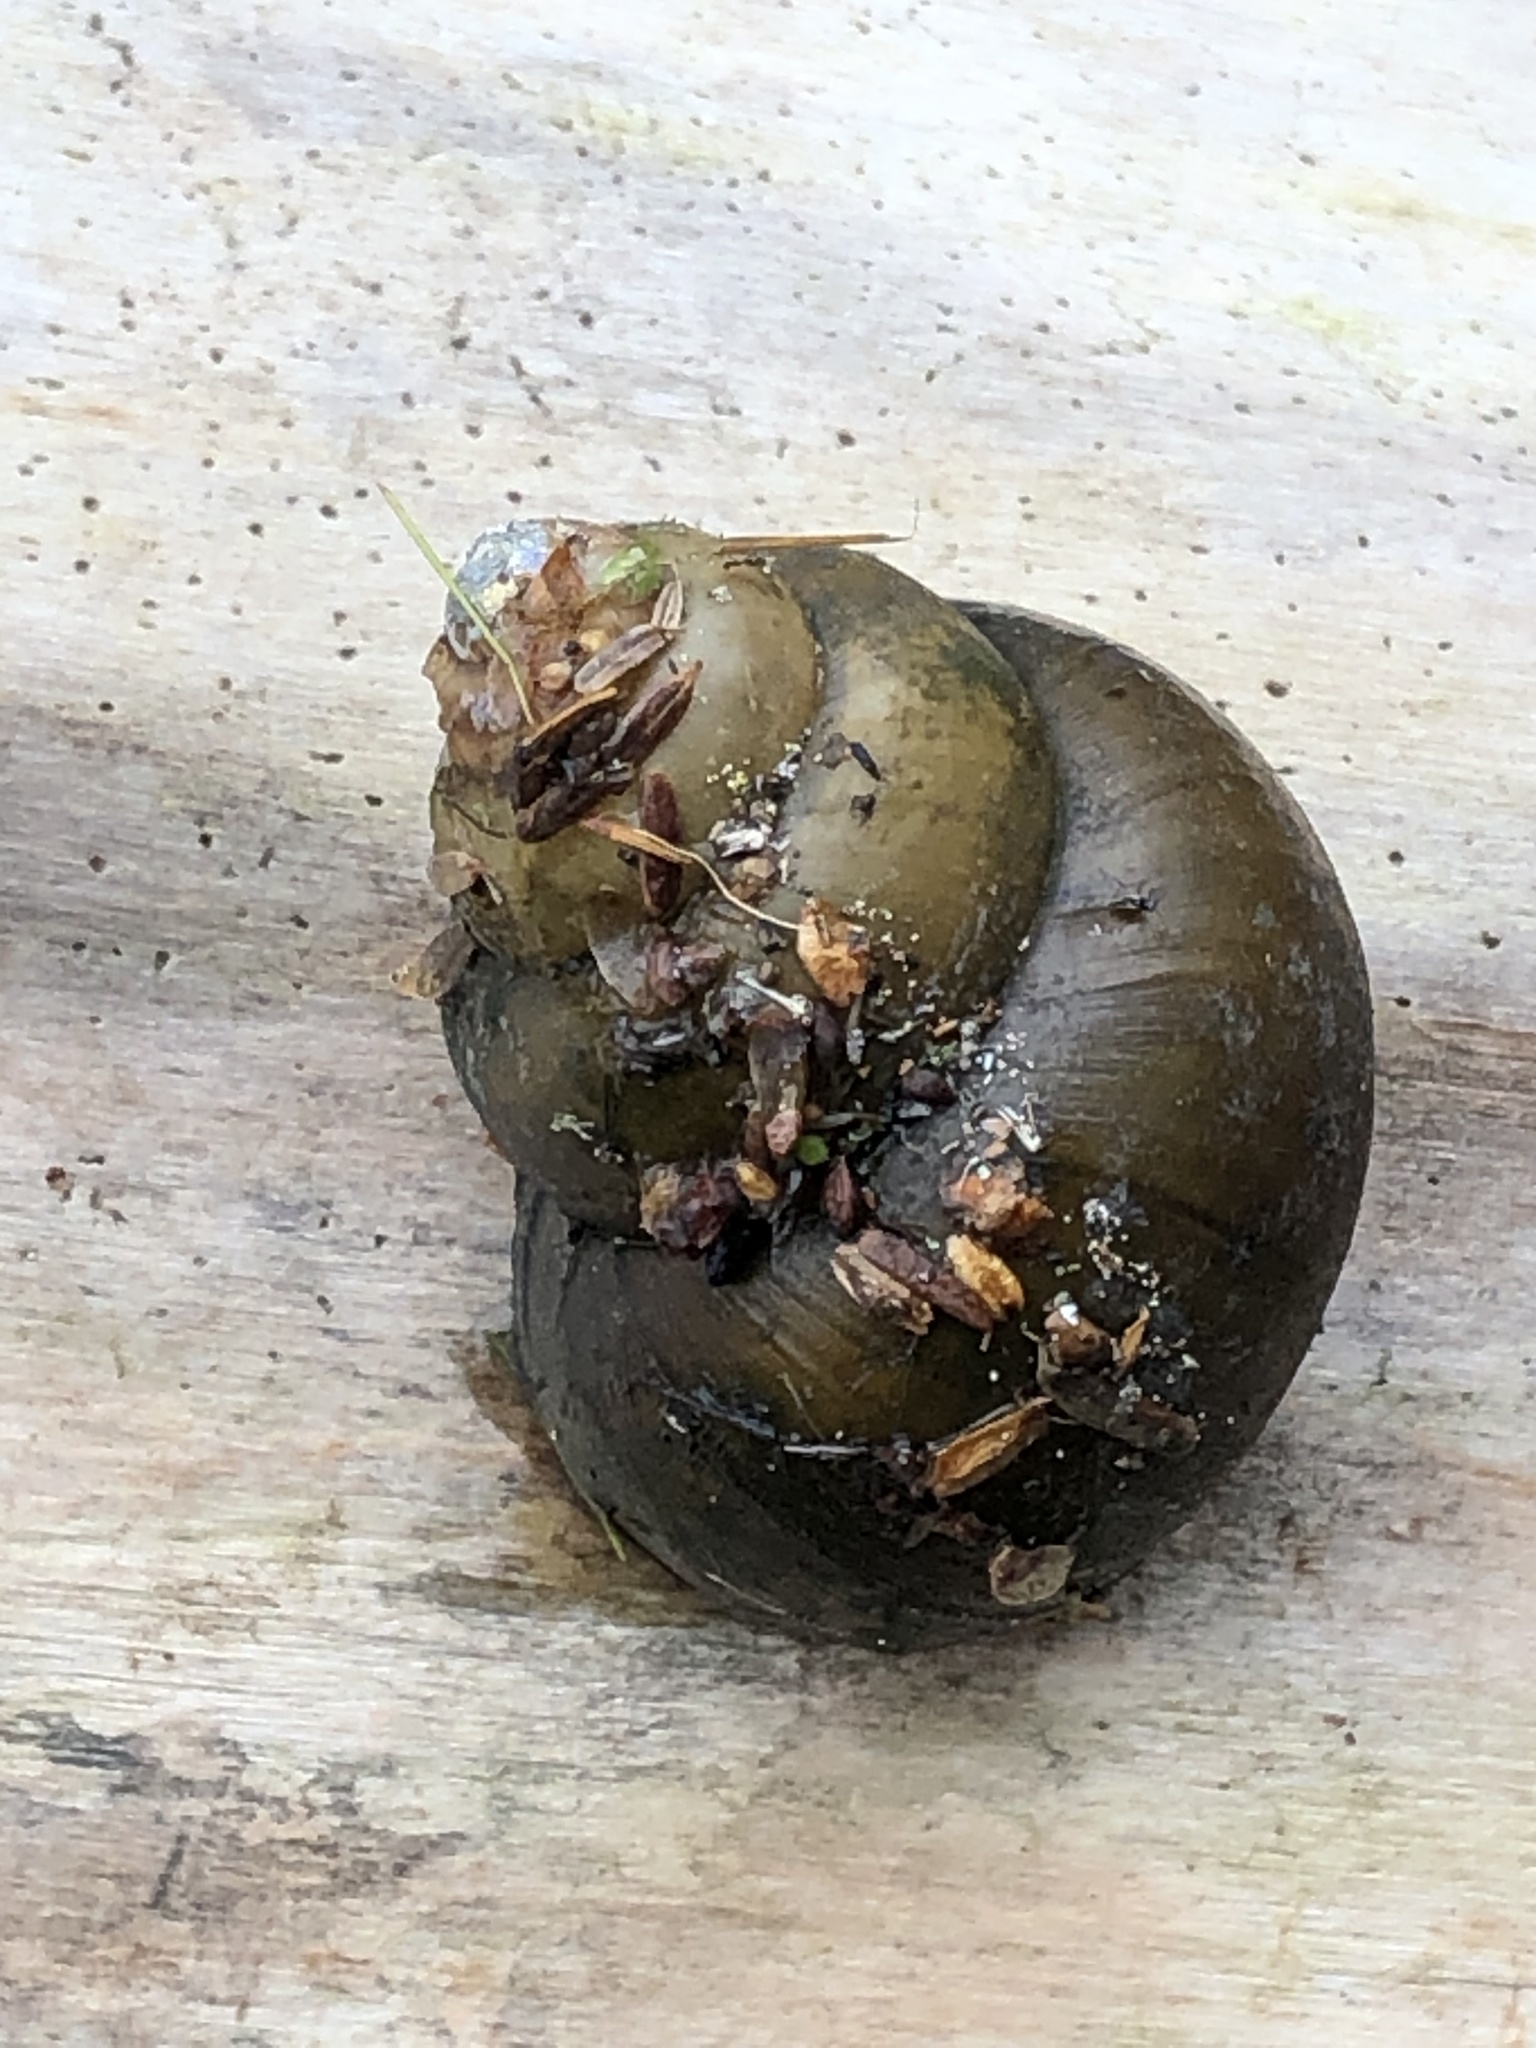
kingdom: Animalia
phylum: Mollusca
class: Gastropoda
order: Architaenioglossa
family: Viviparidae
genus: Cipangopaludina
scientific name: Cipangopaludina chinensis
